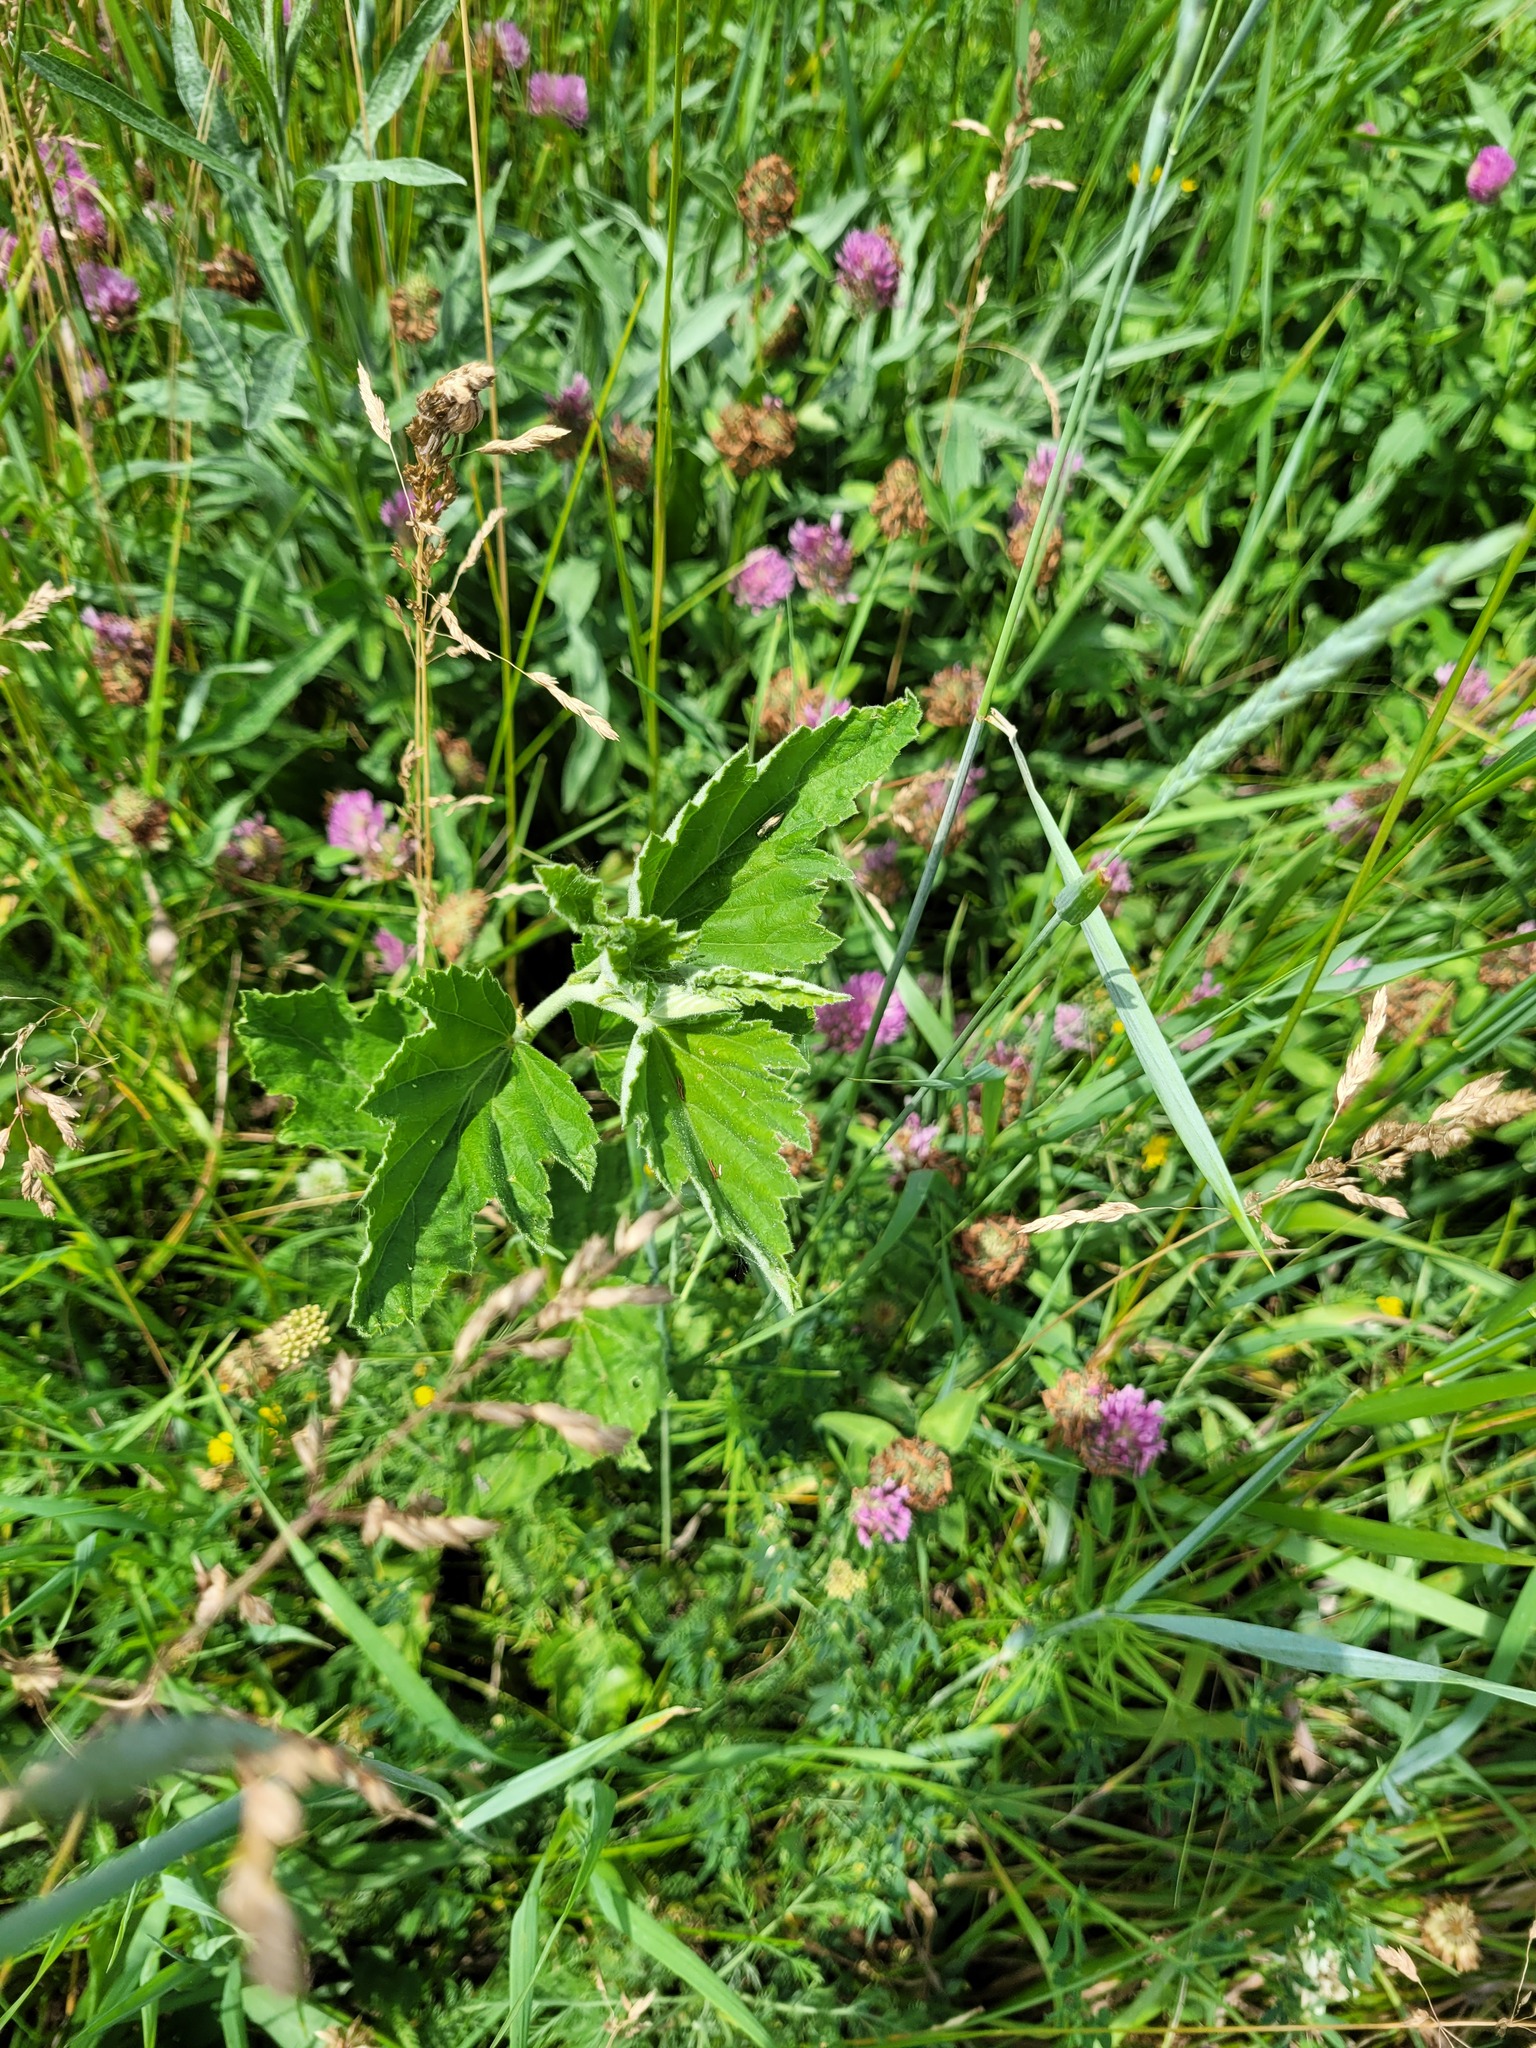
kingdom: Plantae
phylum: Tracheophyta
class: Magnoliopsida
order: Malvales
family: Malvaceae
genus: Althaea
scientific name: Althaea officinalis
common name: Marsh-mallow
